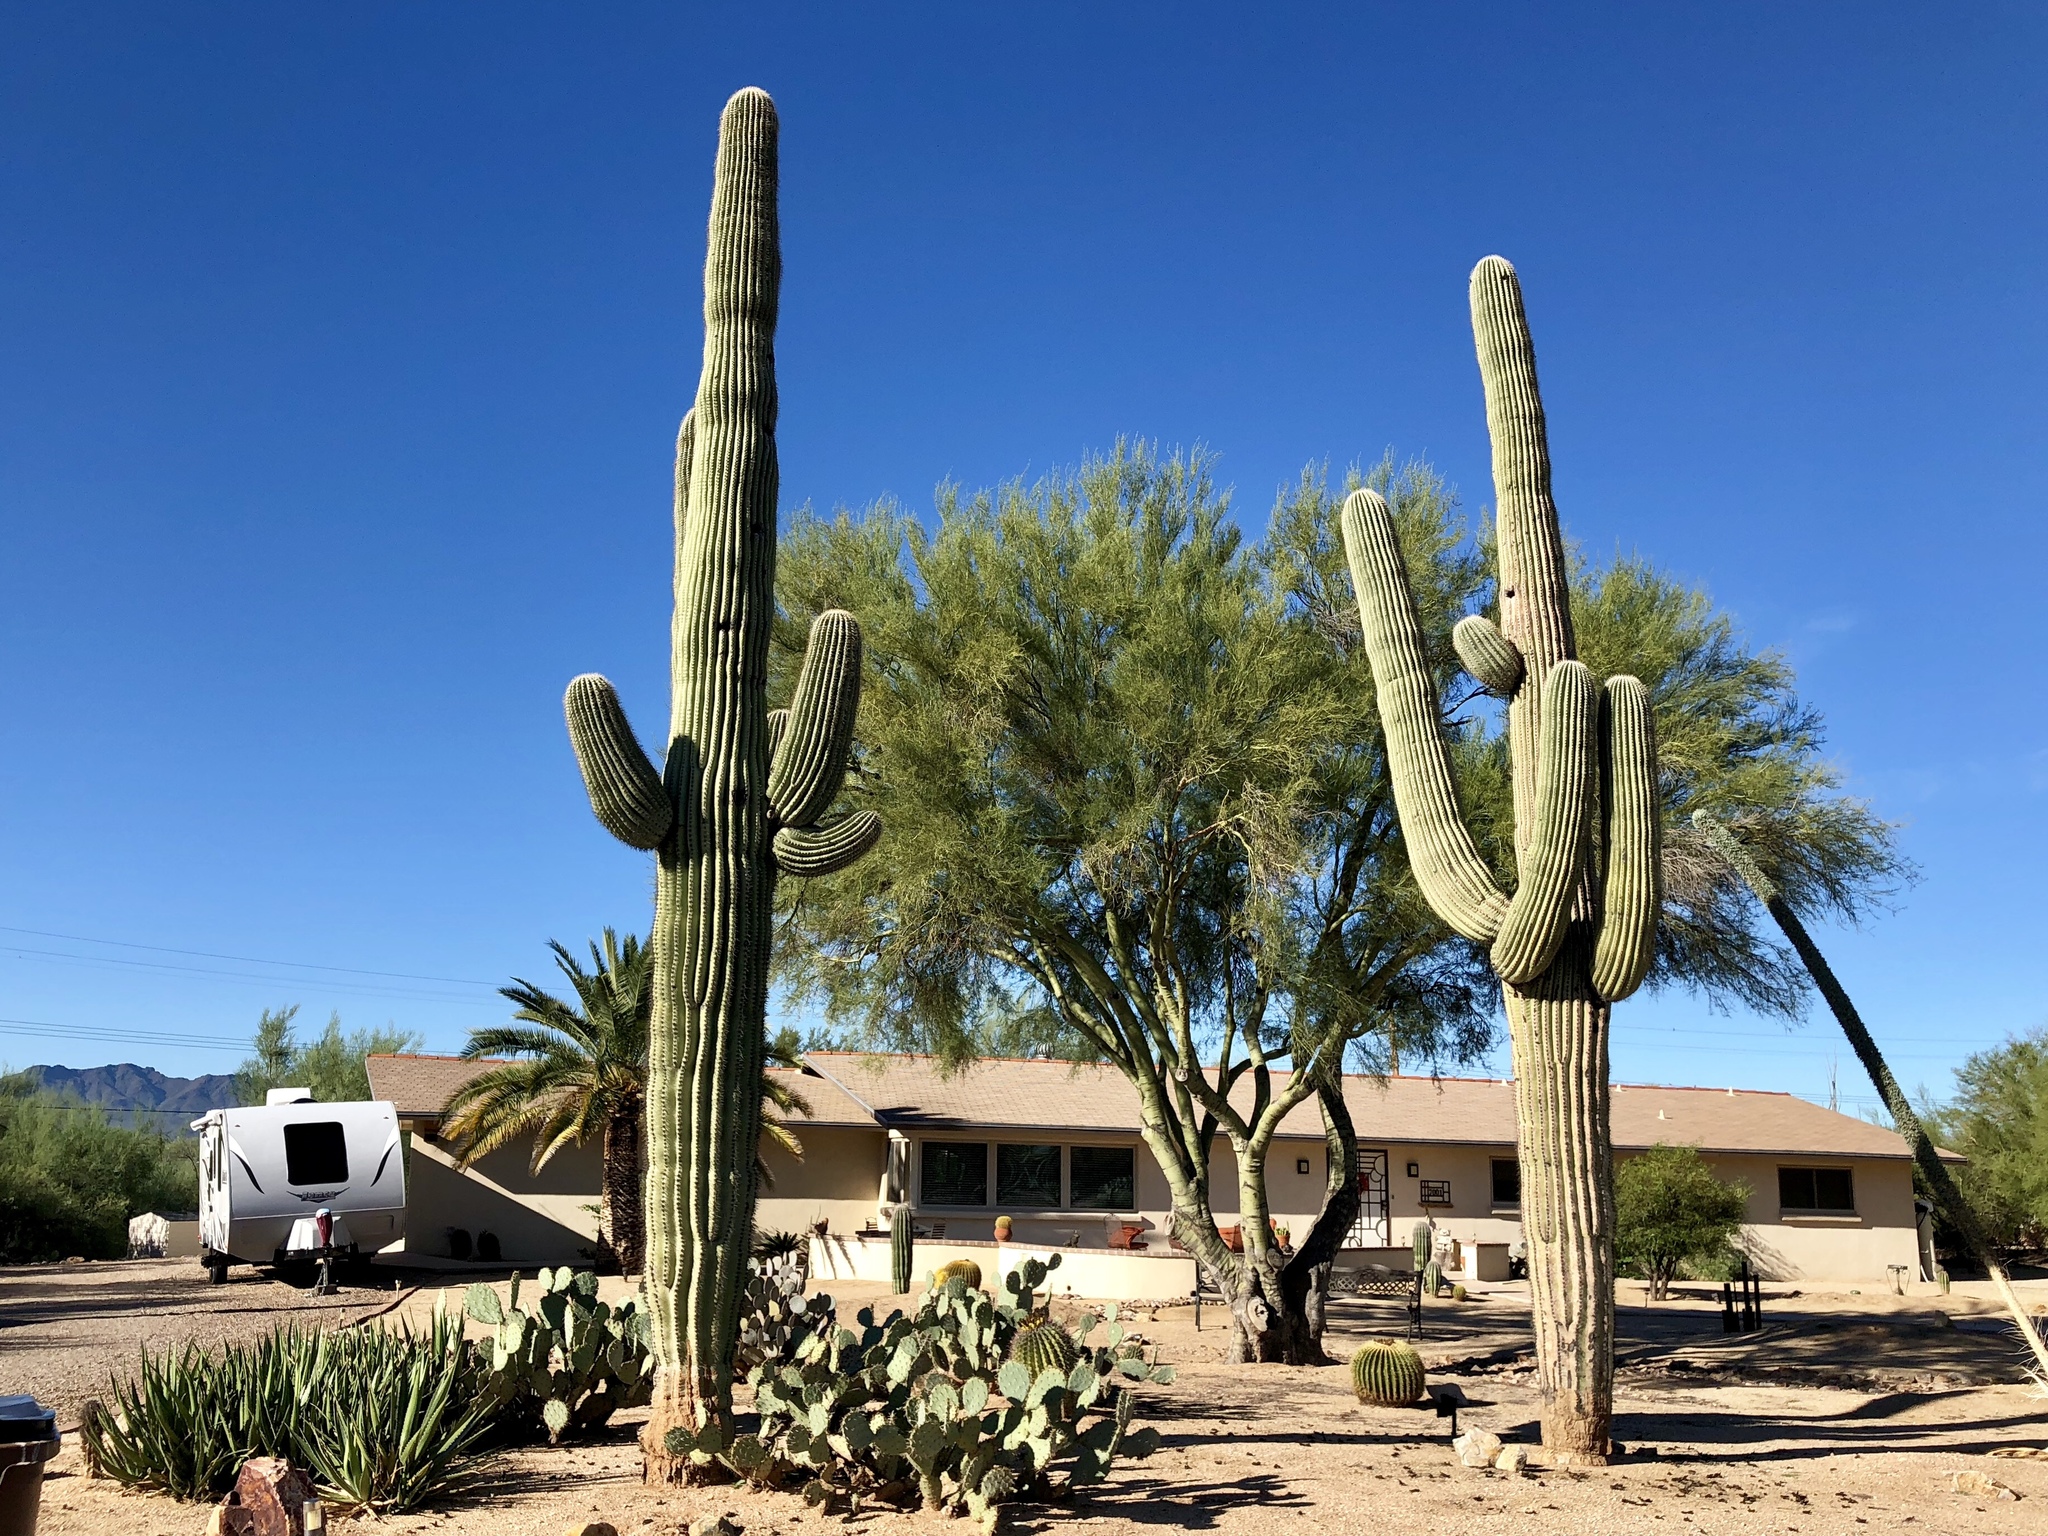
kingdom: Plantae
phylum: Tracheophyta
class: Magnoliopsida
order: Caryophyllales
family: Cactaceae
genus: Carnegiea
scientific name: Carnegiea gigantea
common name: Saguaro
